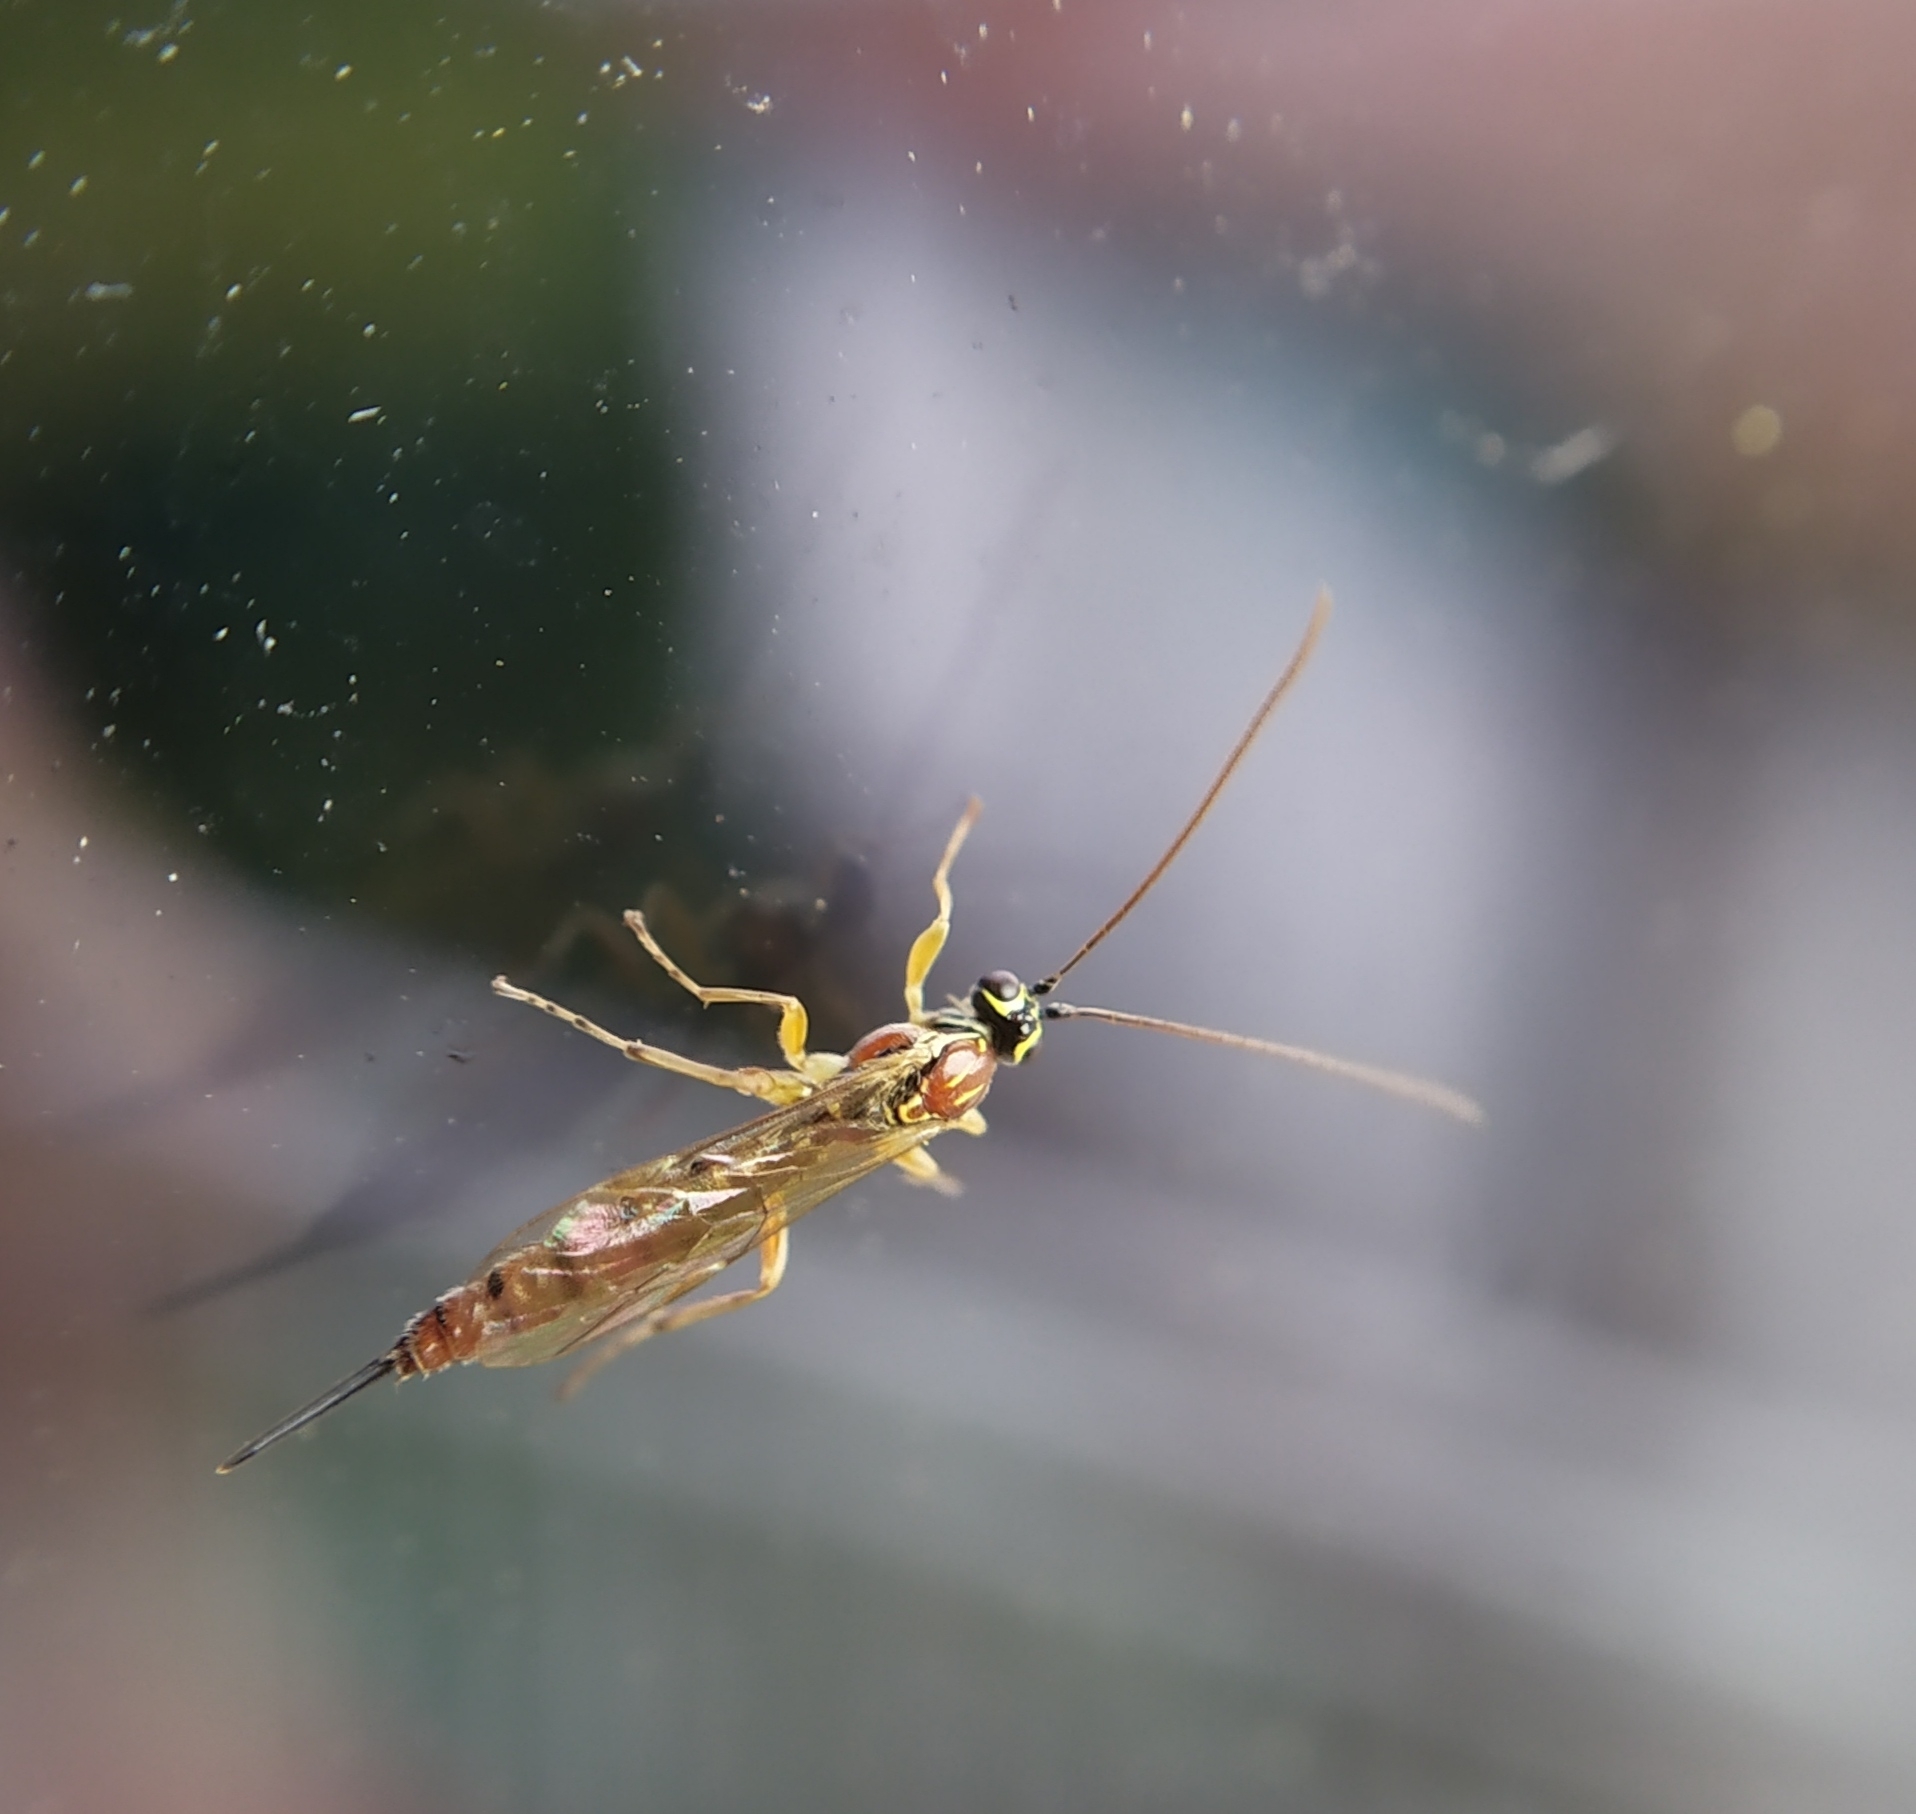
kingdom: Animalia
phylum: Arthropoda
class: Insecta
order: Hymenoptera
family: Ichneumonidae
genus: Tromatobia
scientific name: Tromatobia lineatoria
